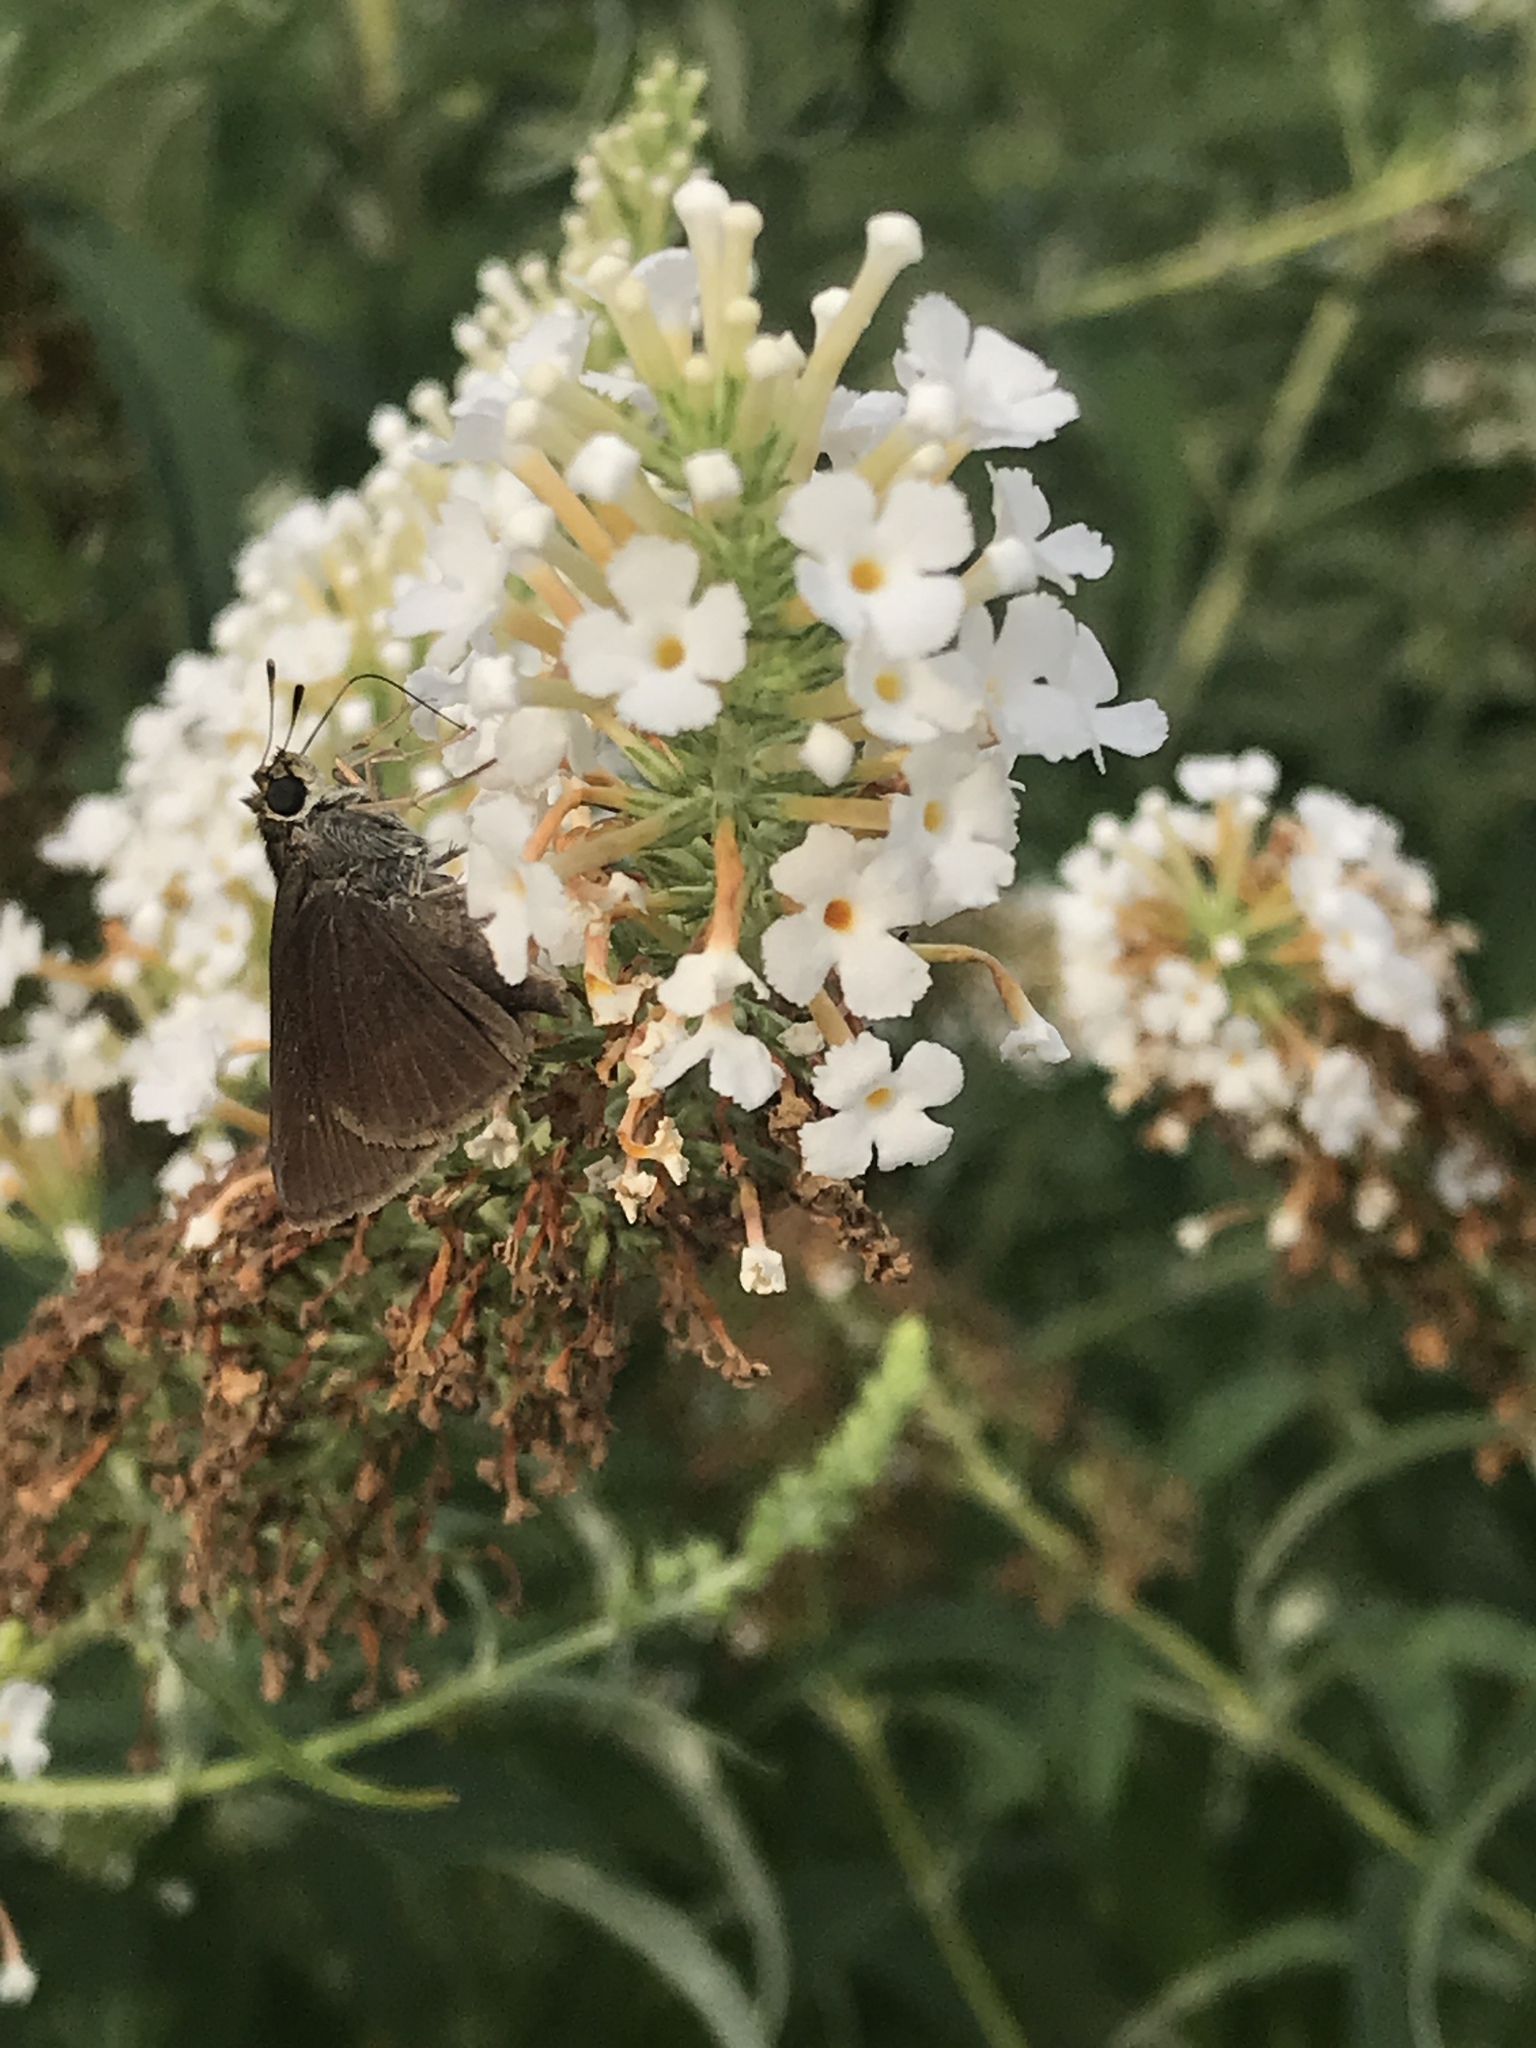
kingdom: Animalia
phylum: Arthropoda
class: Insecta
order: Lepidoptera
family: Hesperiidae
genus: Euphyes
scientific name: Euphyes vestris
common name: Dun skipper
